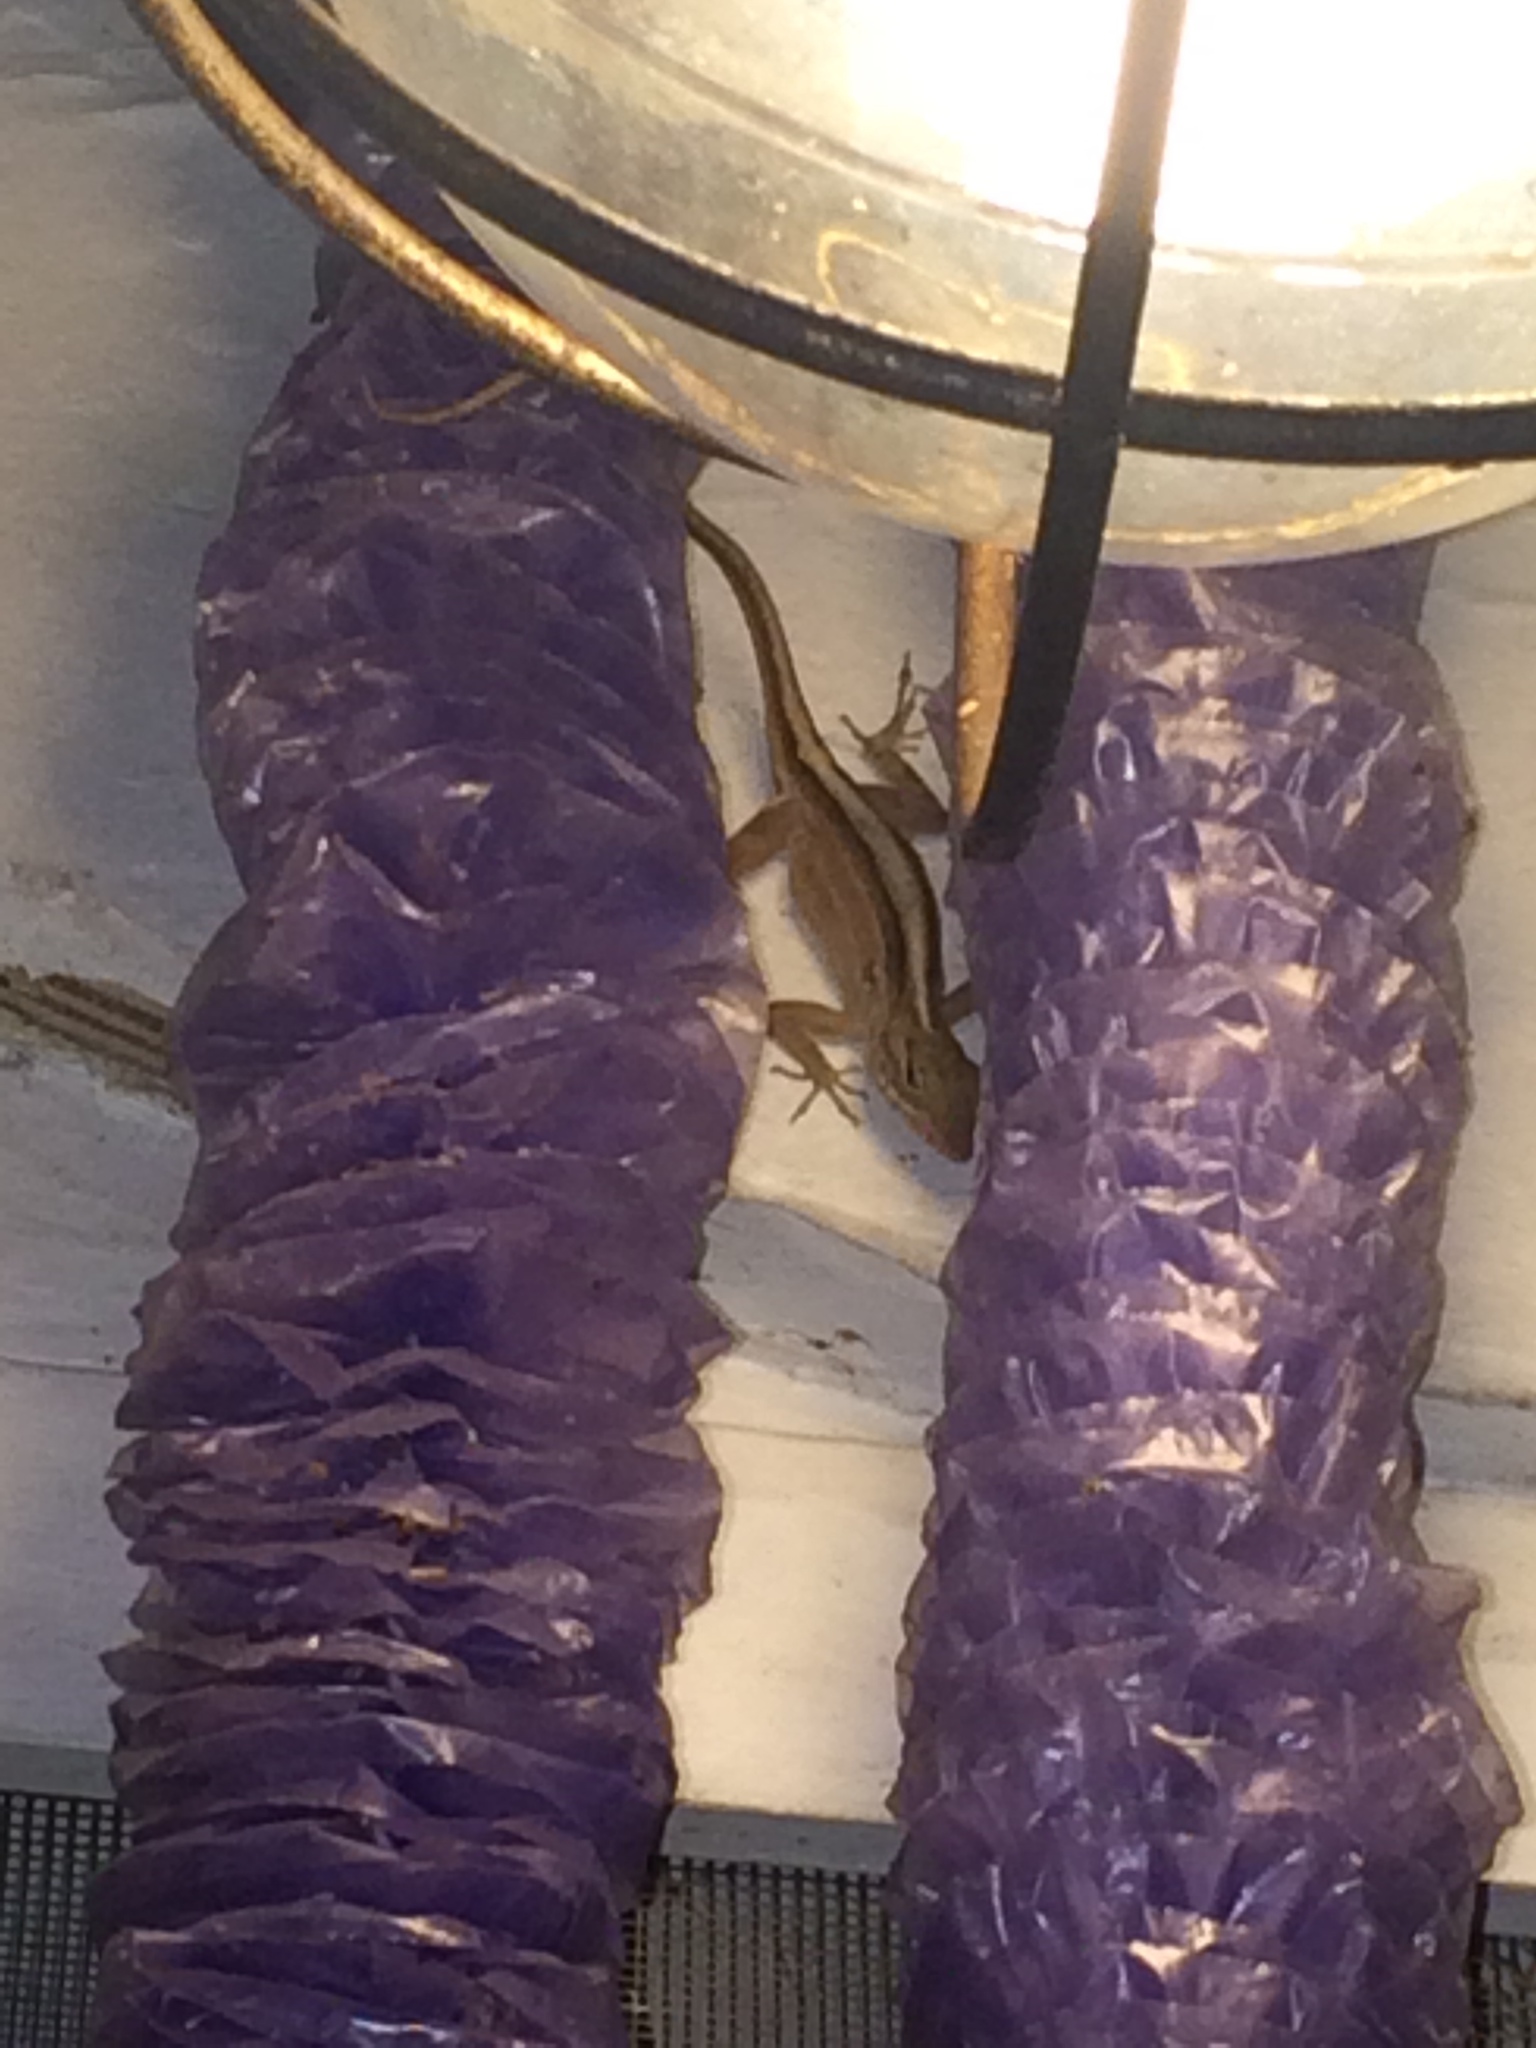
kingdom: Animalia
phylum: Chordata
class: Squamata
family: Dactyloidae
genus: Anolis
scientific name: Anolis sagrei
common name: Brown anole
